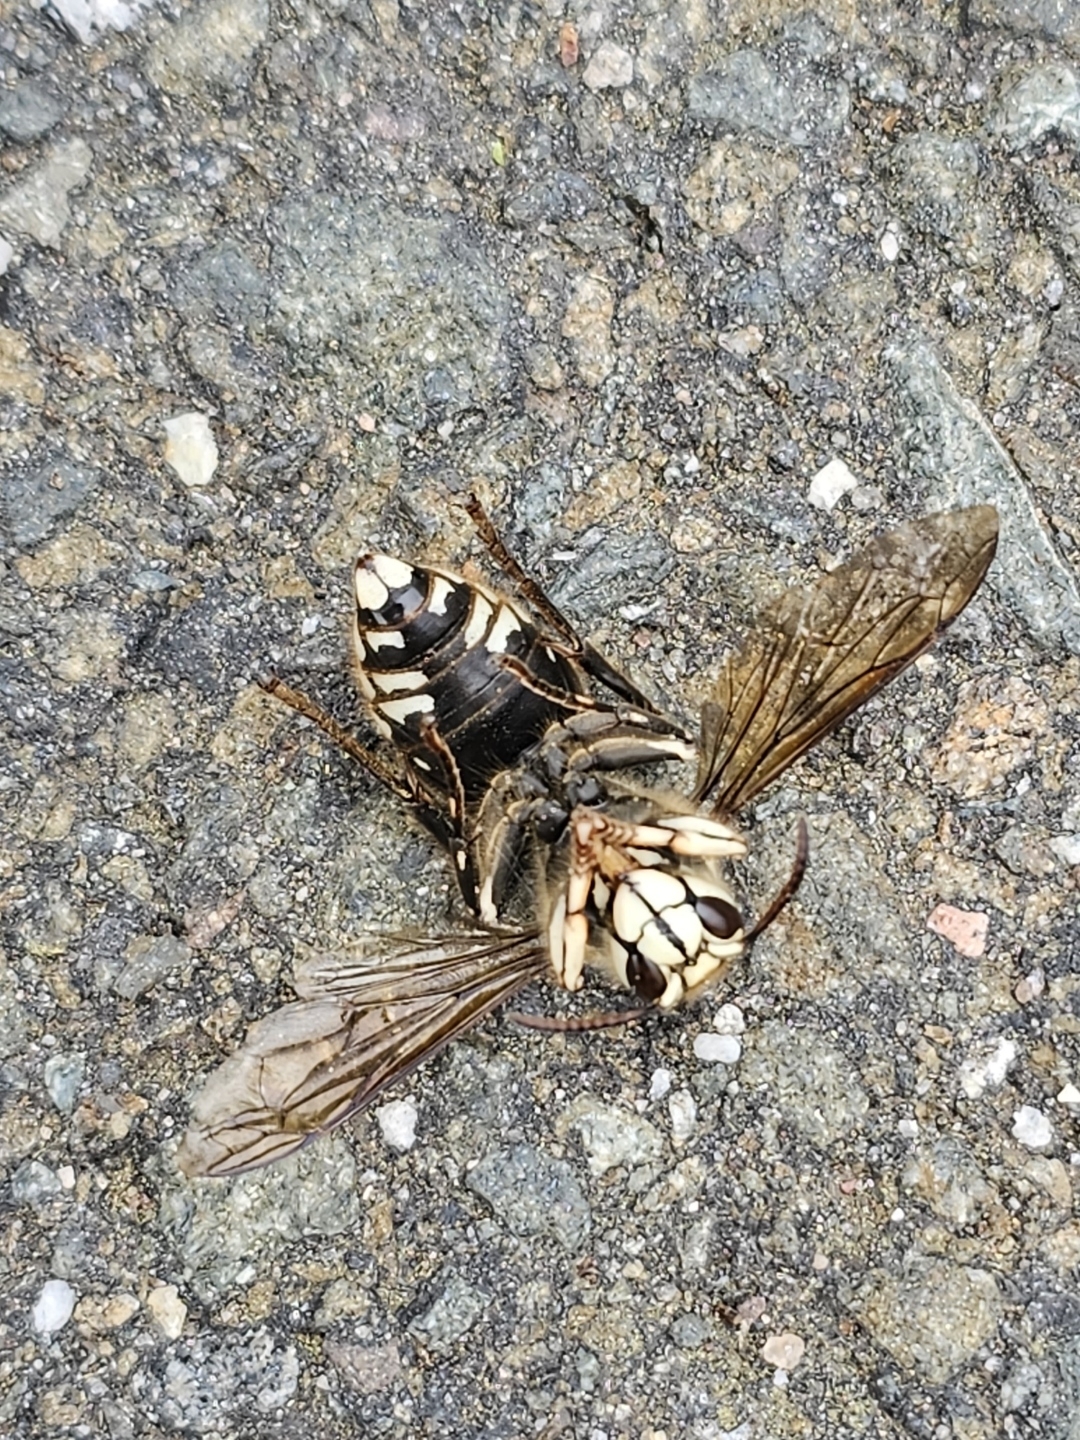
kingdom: Animalia
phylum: Arthropoda
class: Insecta
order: Hymenoptera
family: Vespidae
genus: Dolichovespula
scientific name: Dolichovespula maculata
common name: Bald-faced hornet
